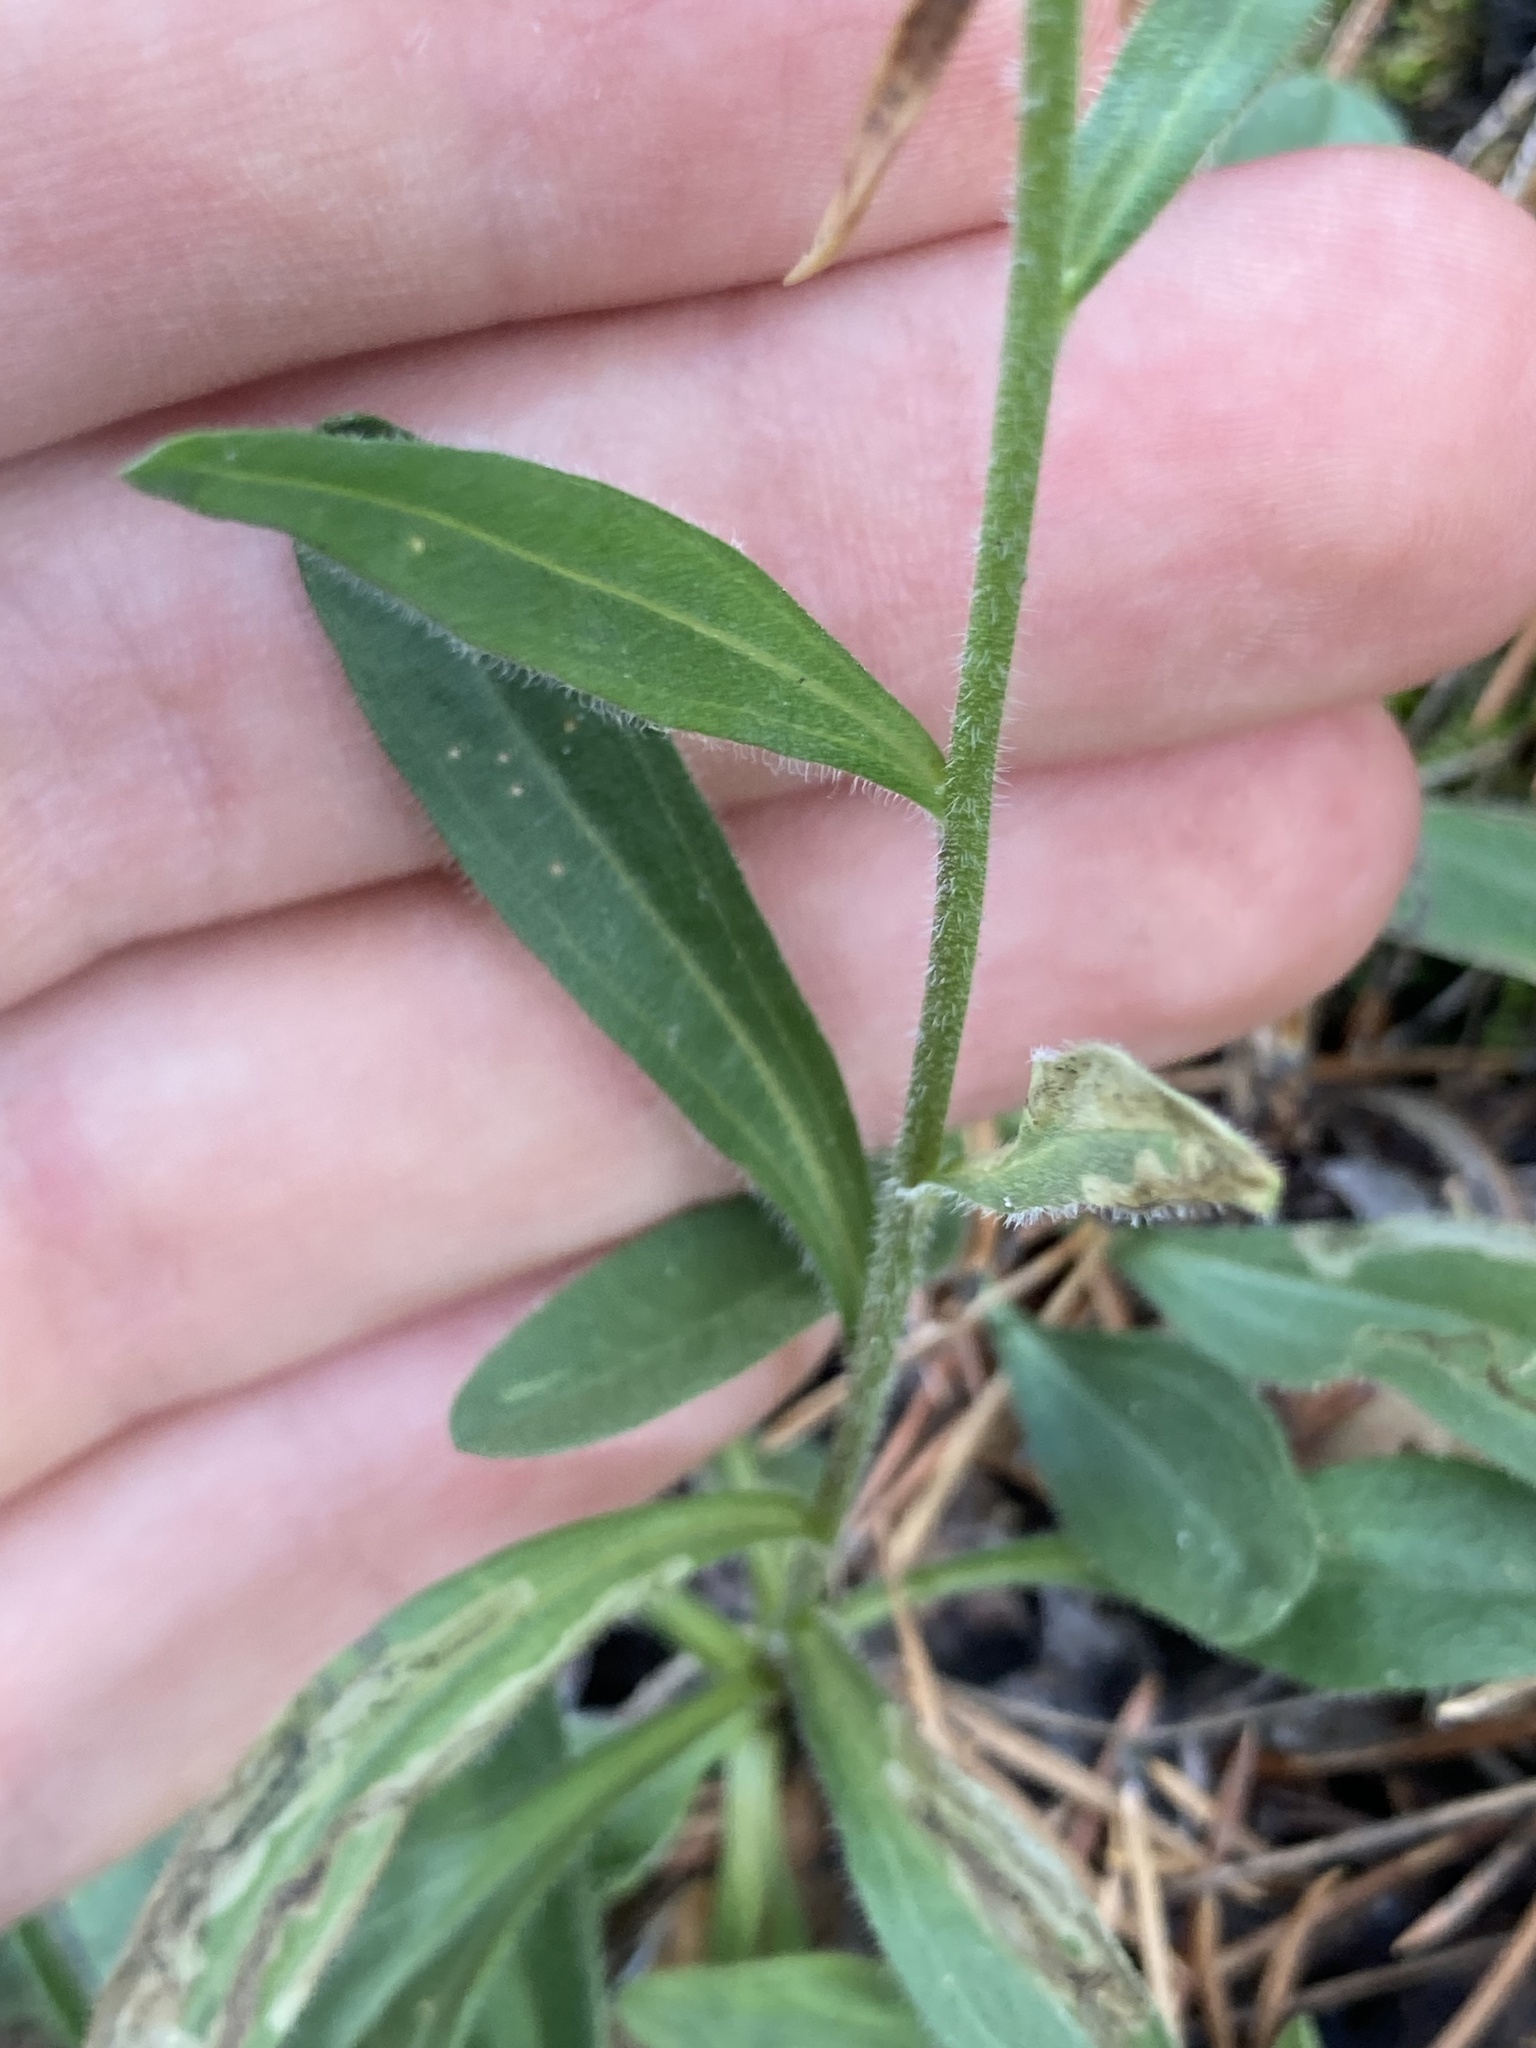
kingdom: Plantae
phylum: Tracheophyta
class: Magnoliopsida
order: Asterales
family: Asteraceae
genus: Aster
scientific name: Aster amellus
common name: European michaelmas daisy
